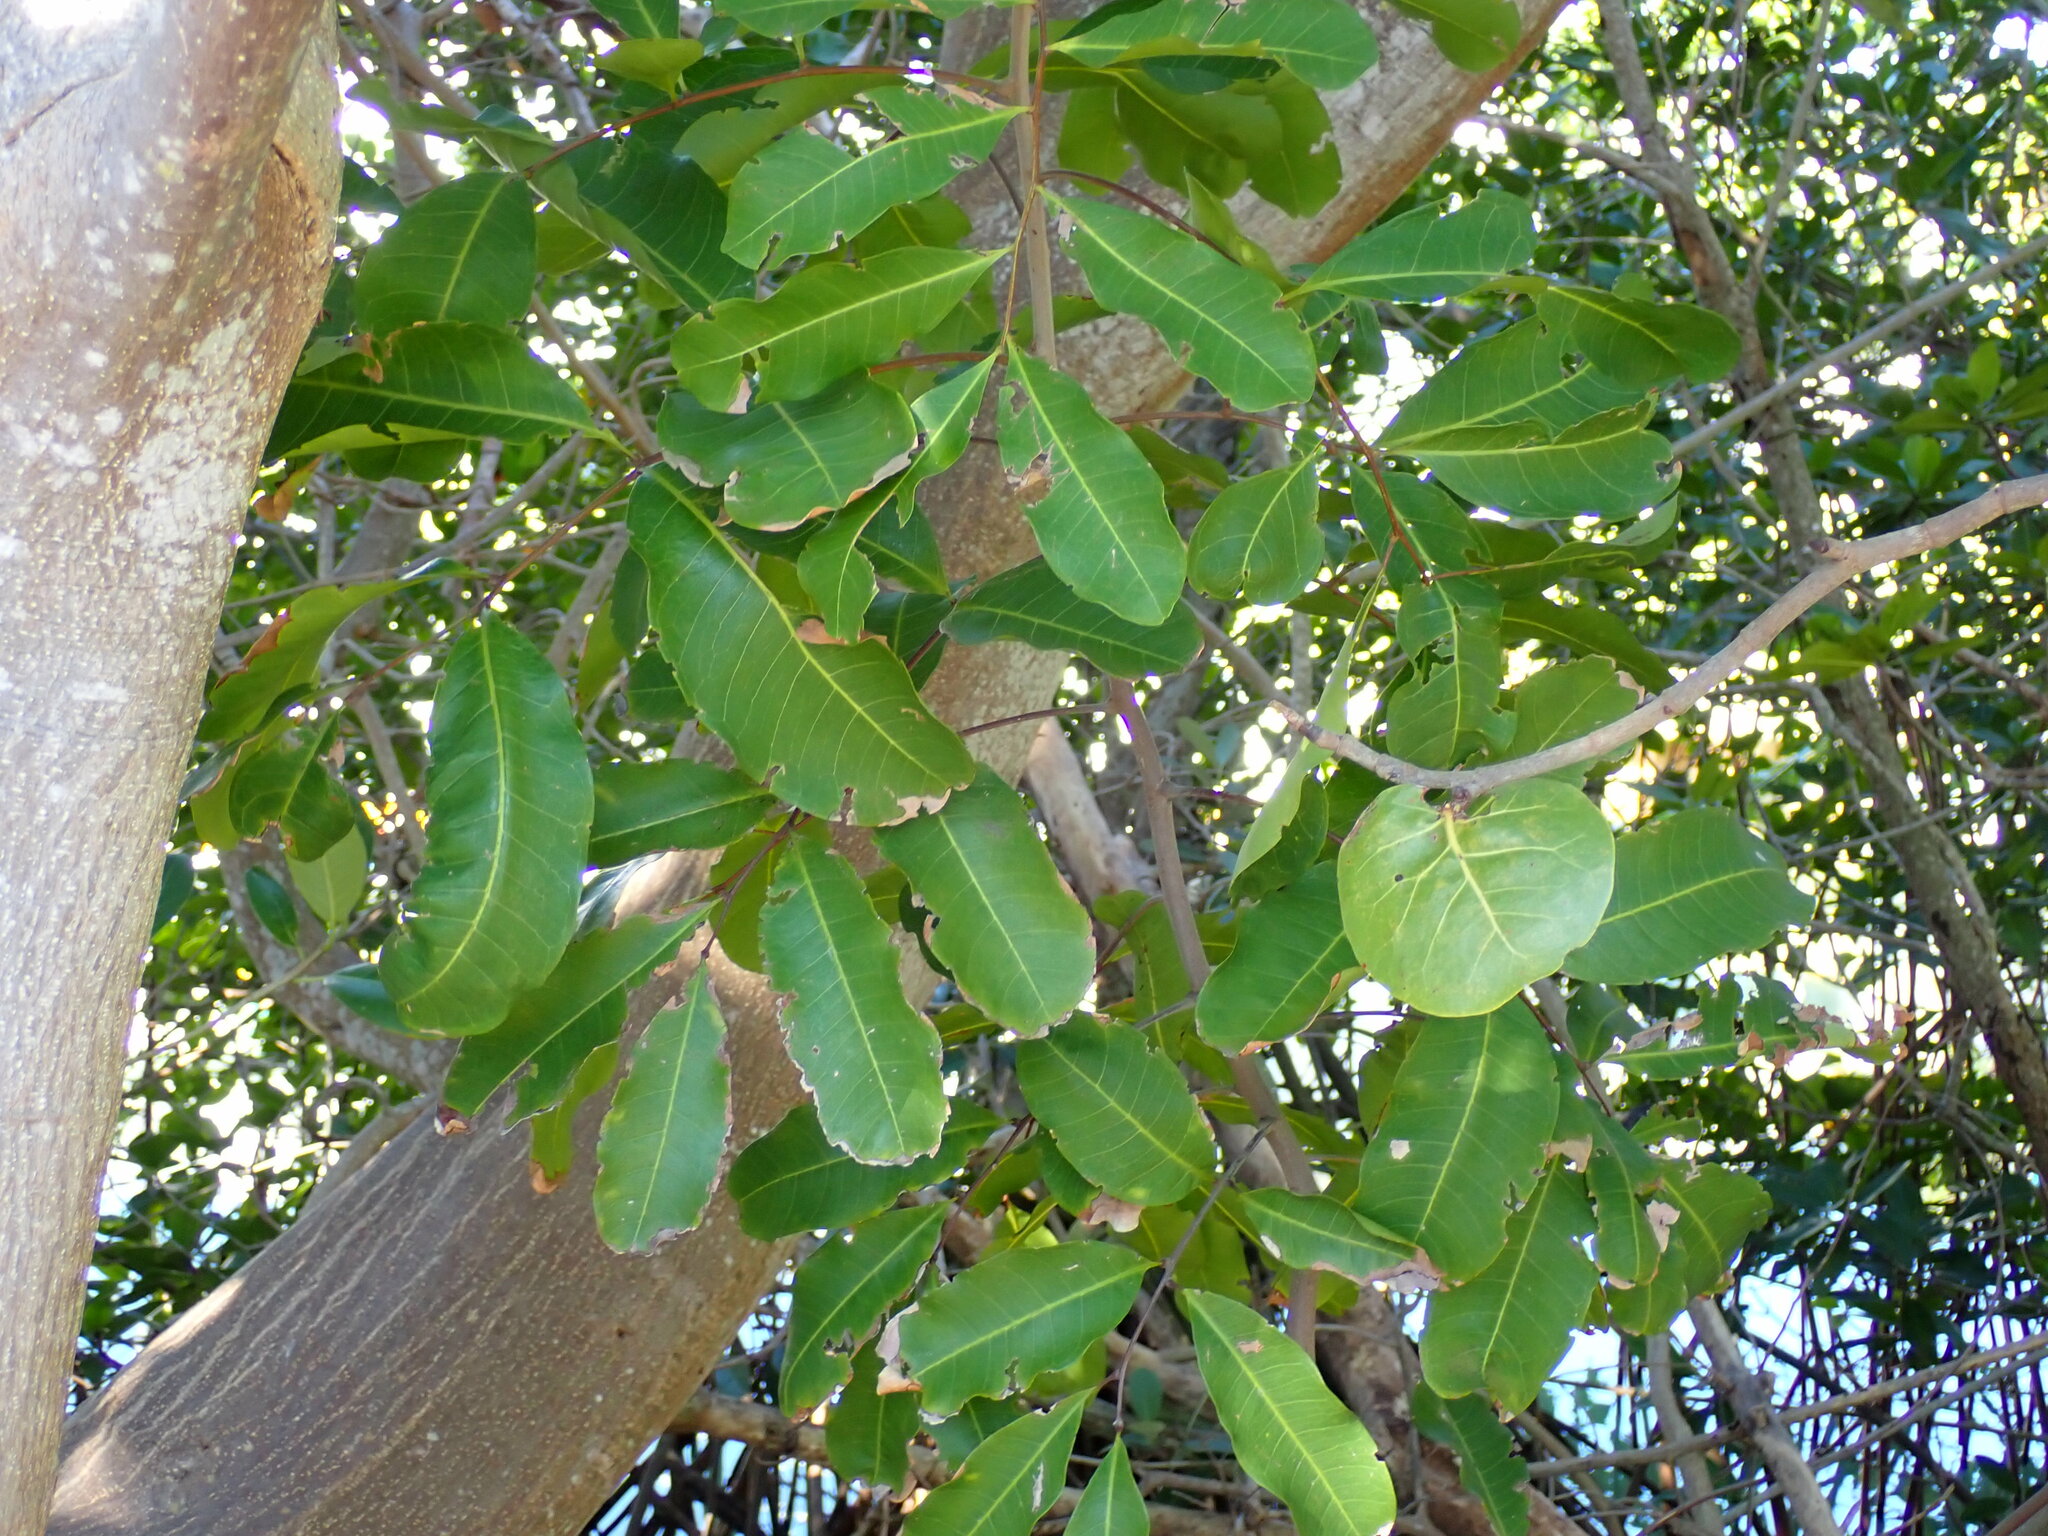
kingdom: Plantae
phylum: Tracheophyta
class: Magnoliopsida
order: Sapindales
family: Sapindaceae
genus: Cupaniopsis
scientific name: Cupaniopsis anacardioides
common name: Carrotwood
